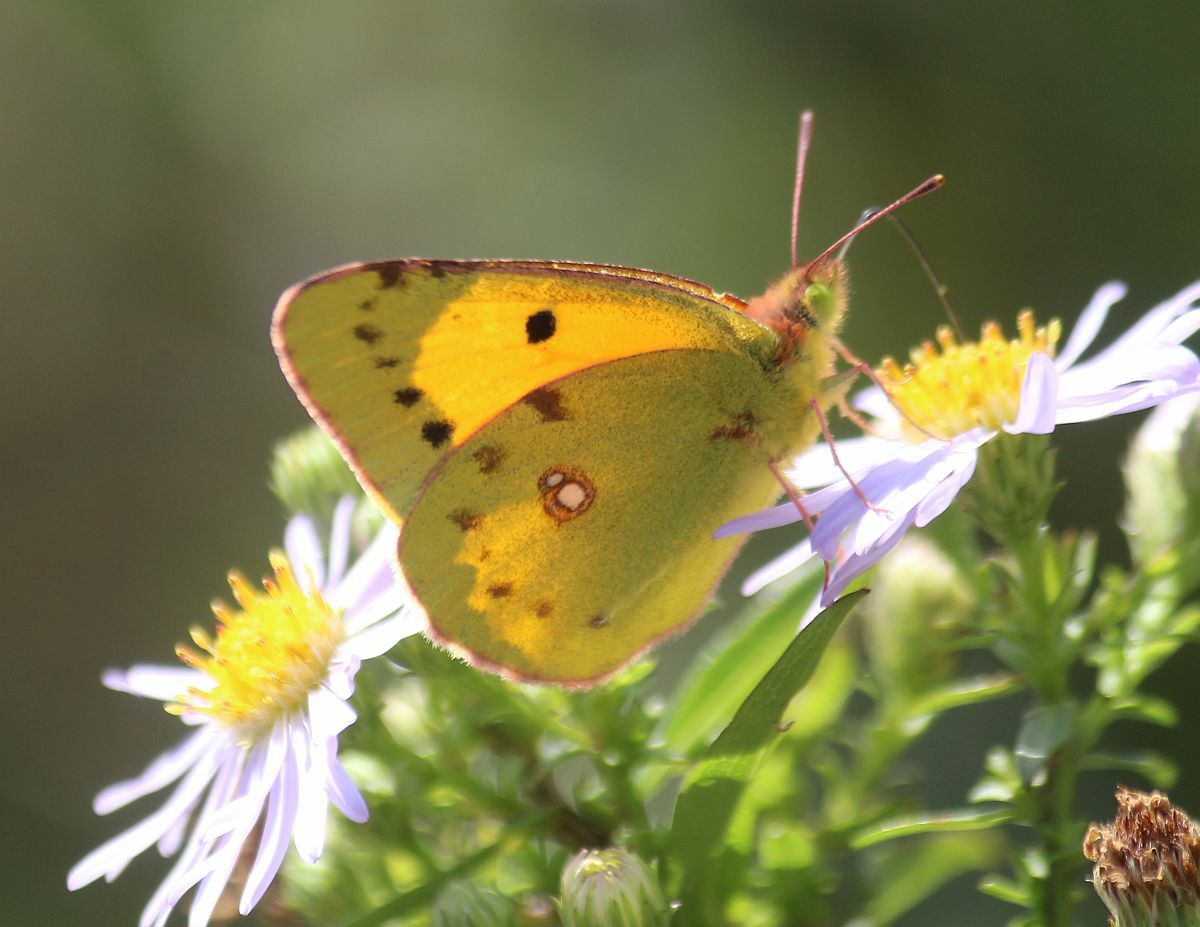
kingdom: Animalia
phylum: Arthropoda
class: Insecta
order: Lepidoptera
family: Pieridae
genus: Colias
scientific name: Colias croceus
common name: Clouded yellow
